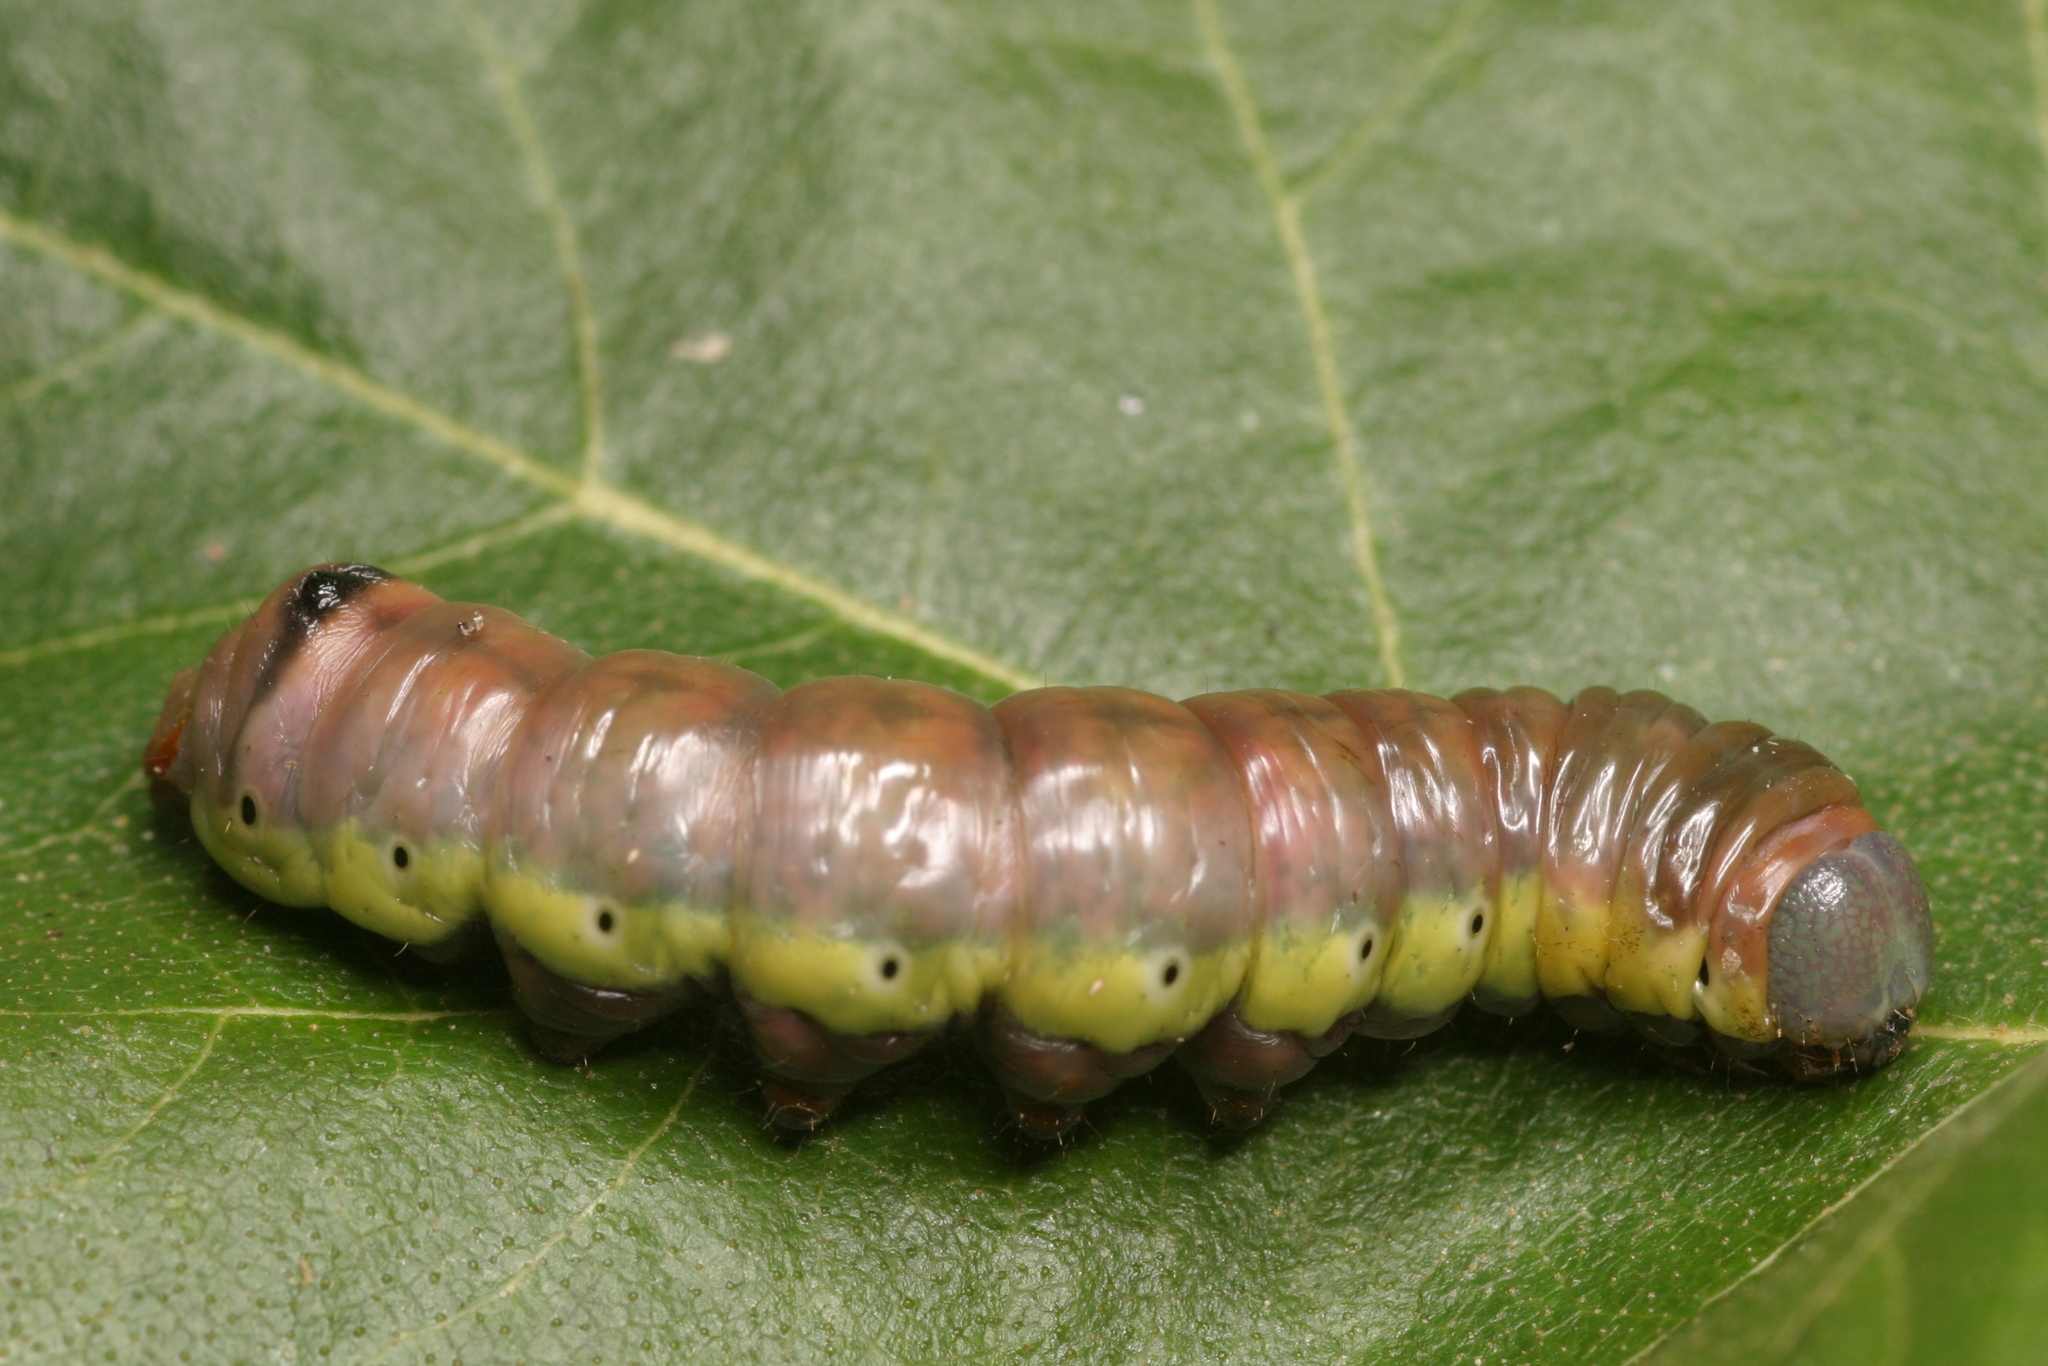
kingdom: Animalia
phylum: Arthropoda
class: Insecta
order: Lepidoptera
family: Notodontidae
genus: Pheosia
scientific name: Pheosia gnoma
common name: Lesser swallow prominent
